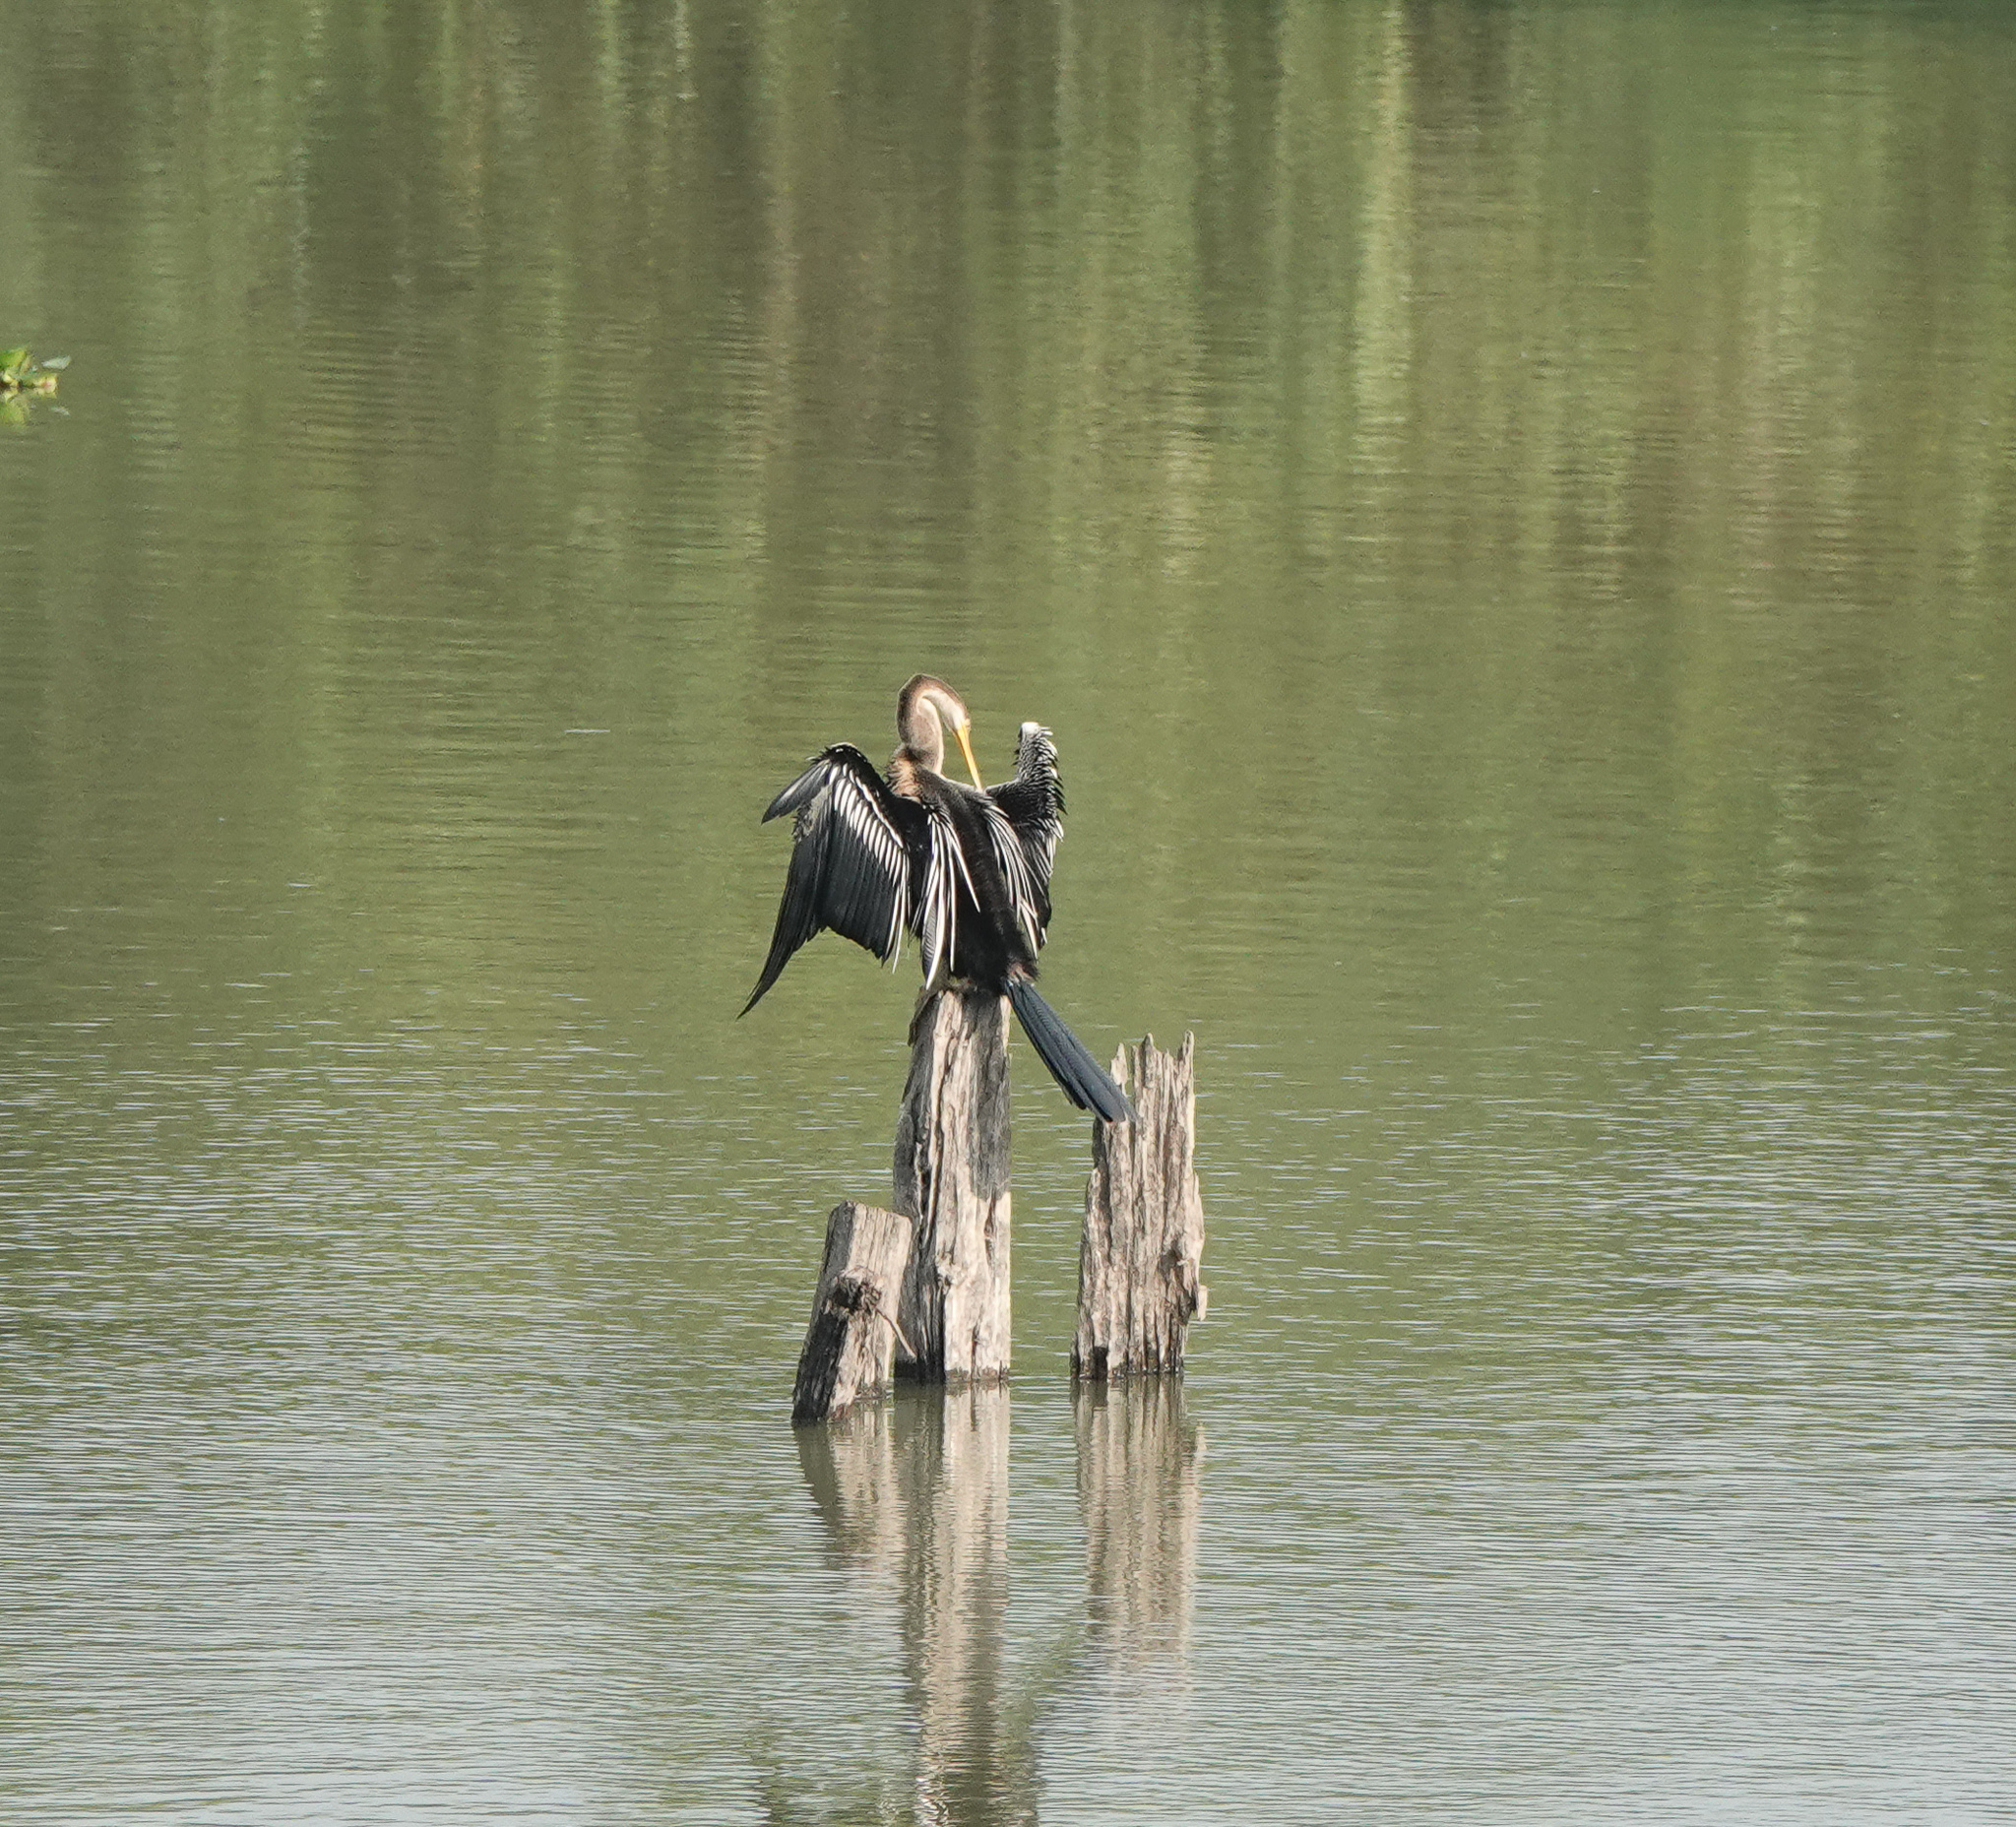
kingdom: Animalia
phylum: Chordata
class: Aves
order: Suliformes
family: Anhingidae
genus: Anhinga
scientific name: Anhinga melanogaster
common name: Oriental darter
